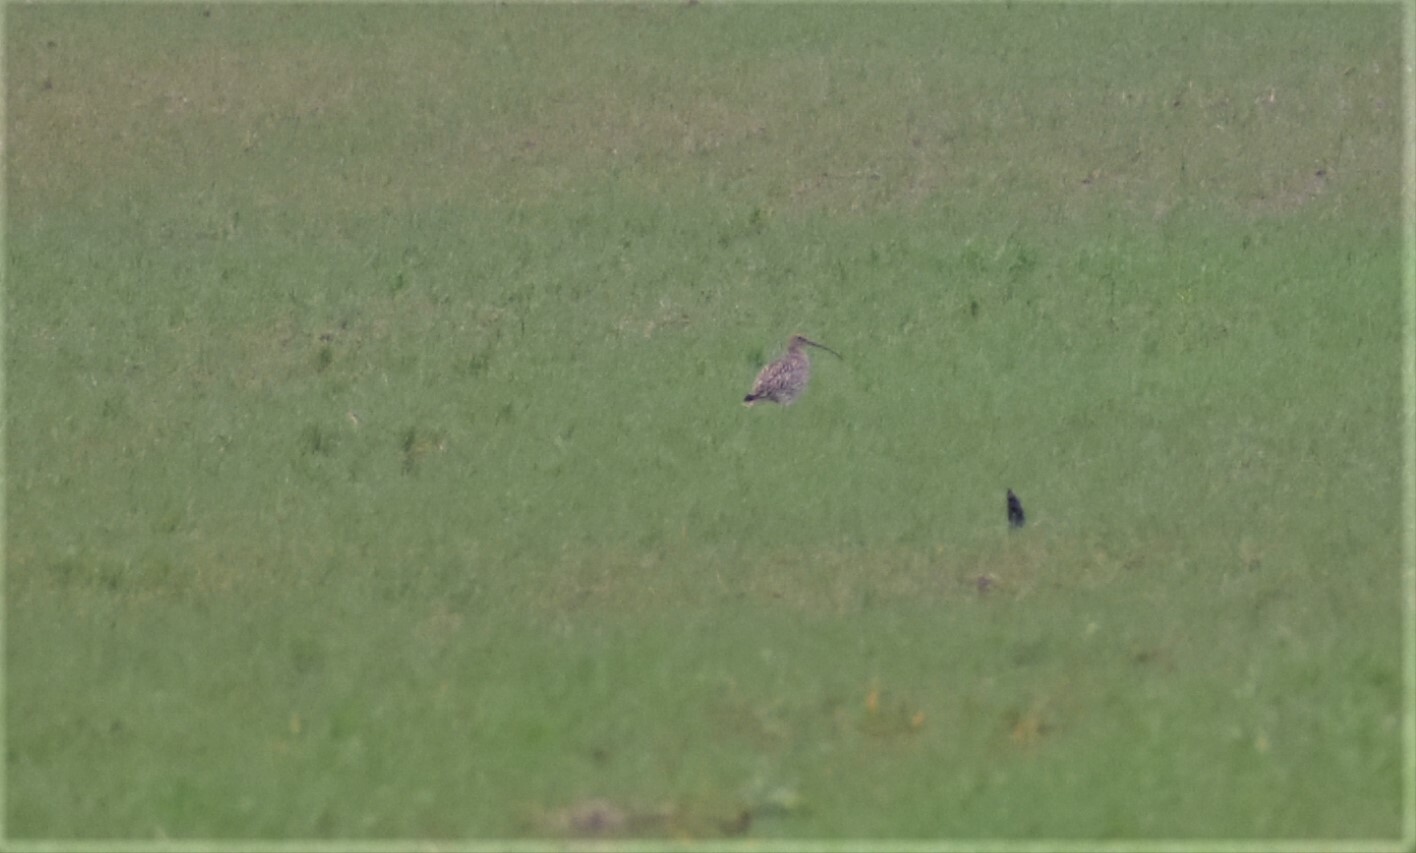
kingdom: Animalia
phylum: Chordata
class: Aves
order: Charadriiformes
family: Scolopacidae
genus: Numenius
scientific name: Numenius arquata
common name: Eurasian curlew
